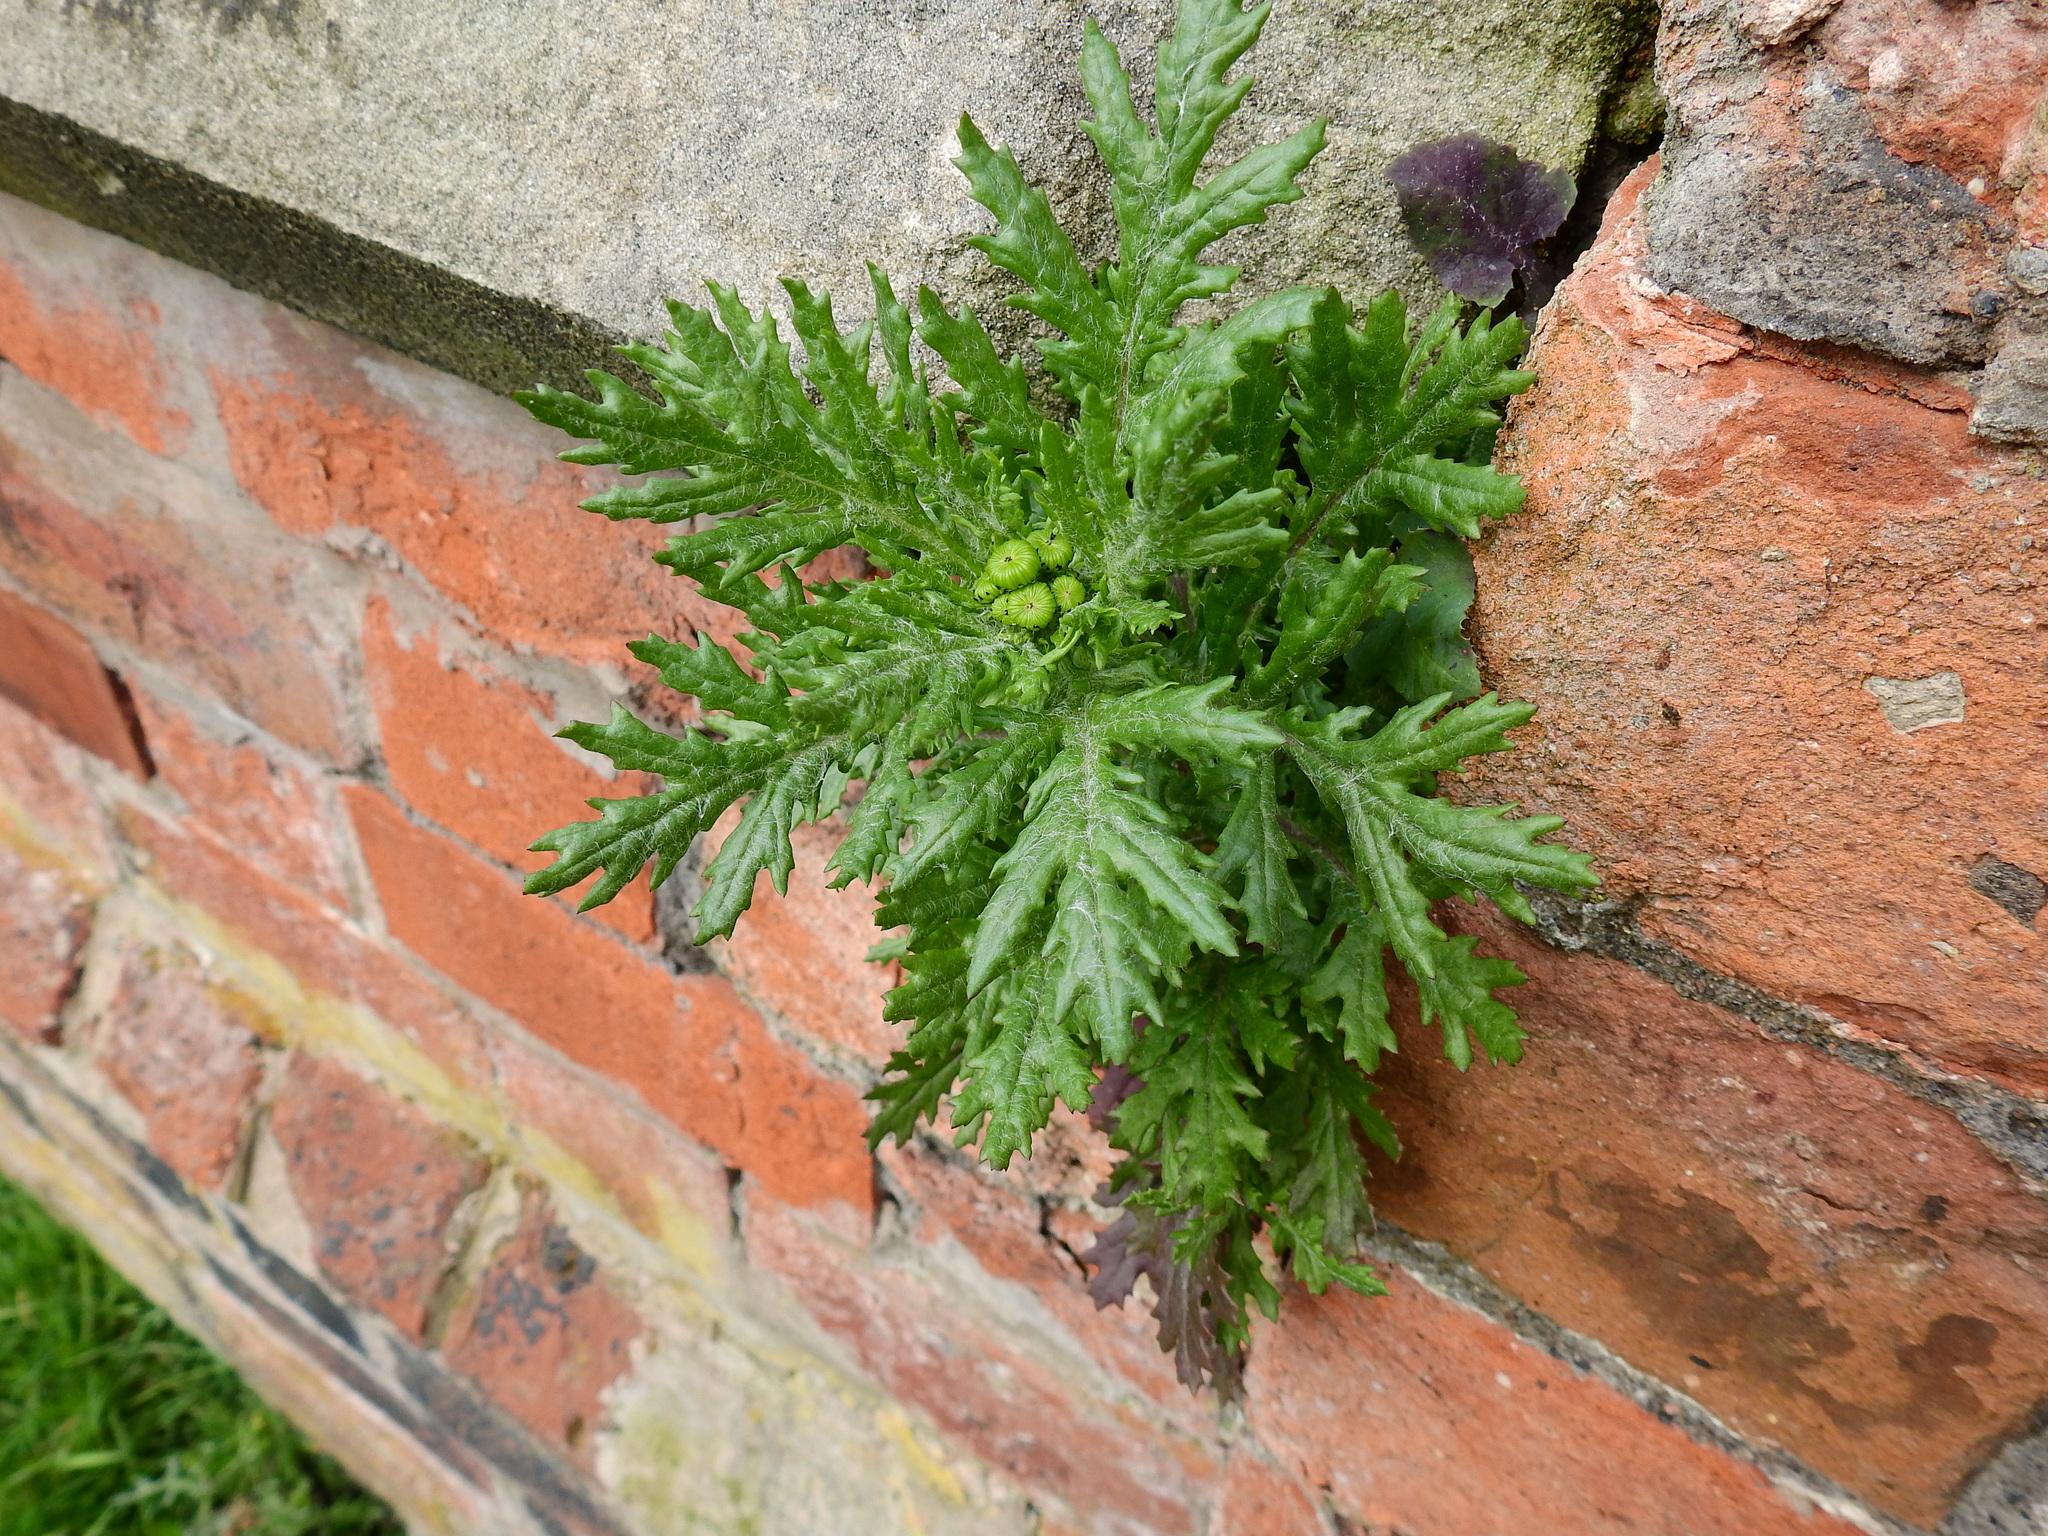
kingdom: Plantae
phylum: Tracheophyta
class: Magnoliopsida
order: Asterales
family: Asteraceae
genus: Senecio
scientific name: Senecio squalidus
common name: Oxford ragwort
